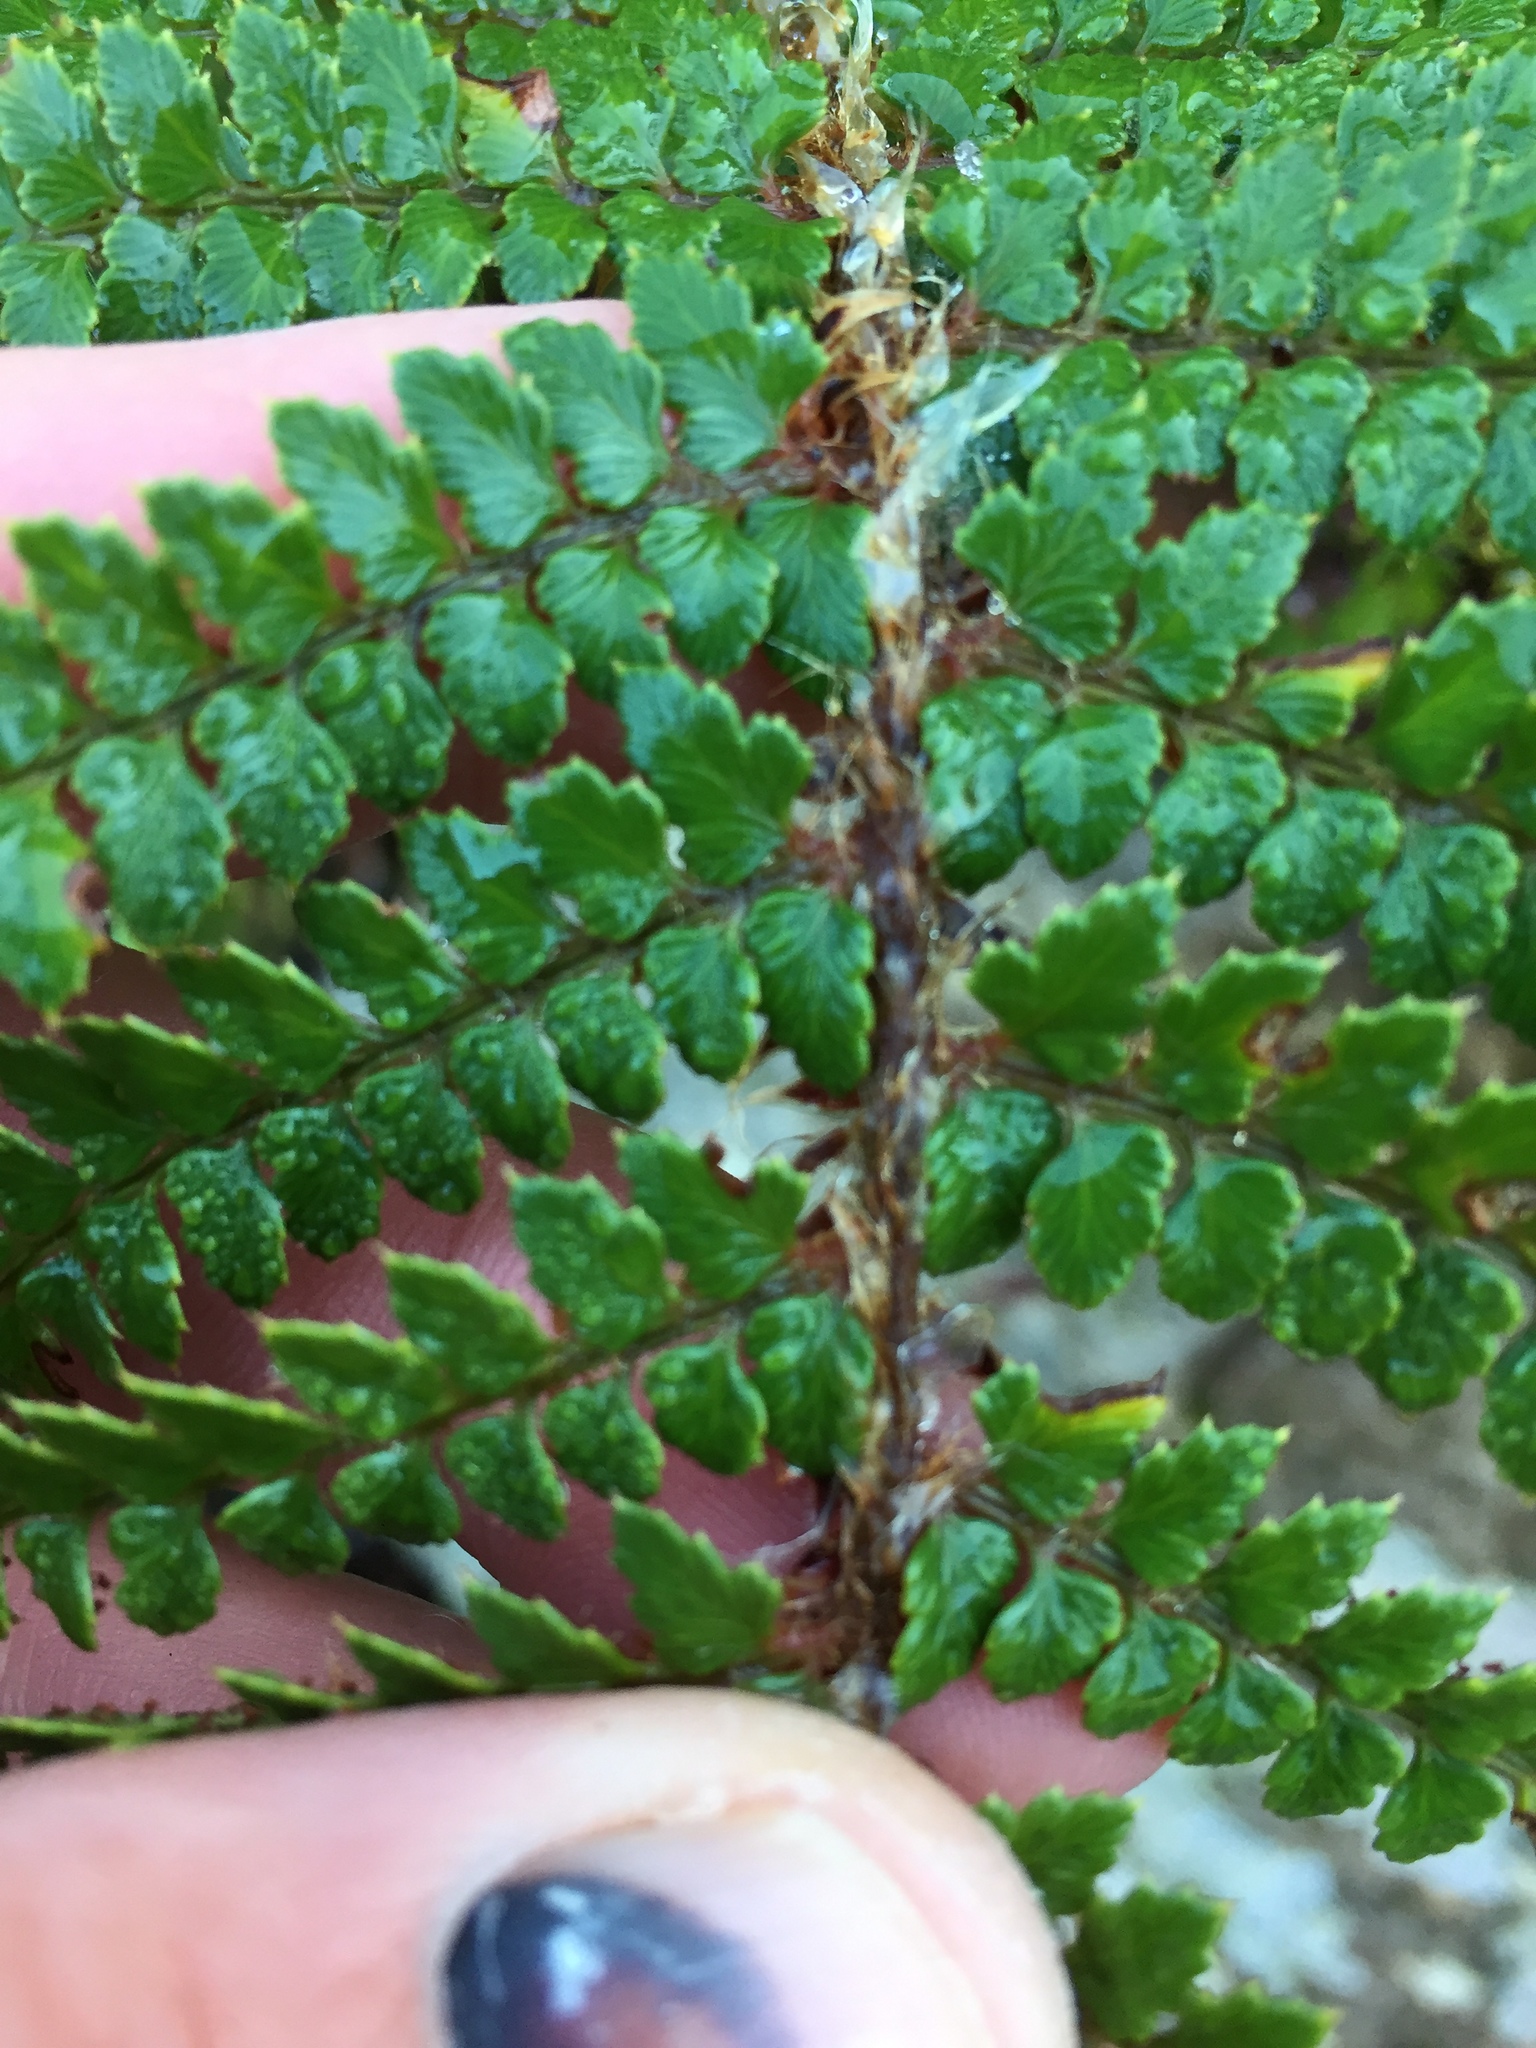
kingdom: Plantae
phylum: Tracheophyta
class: Polypodiopsida
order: Polypodiales
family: Dryopteridaceae
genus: Polystichum
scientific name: Polystichum vestitum
